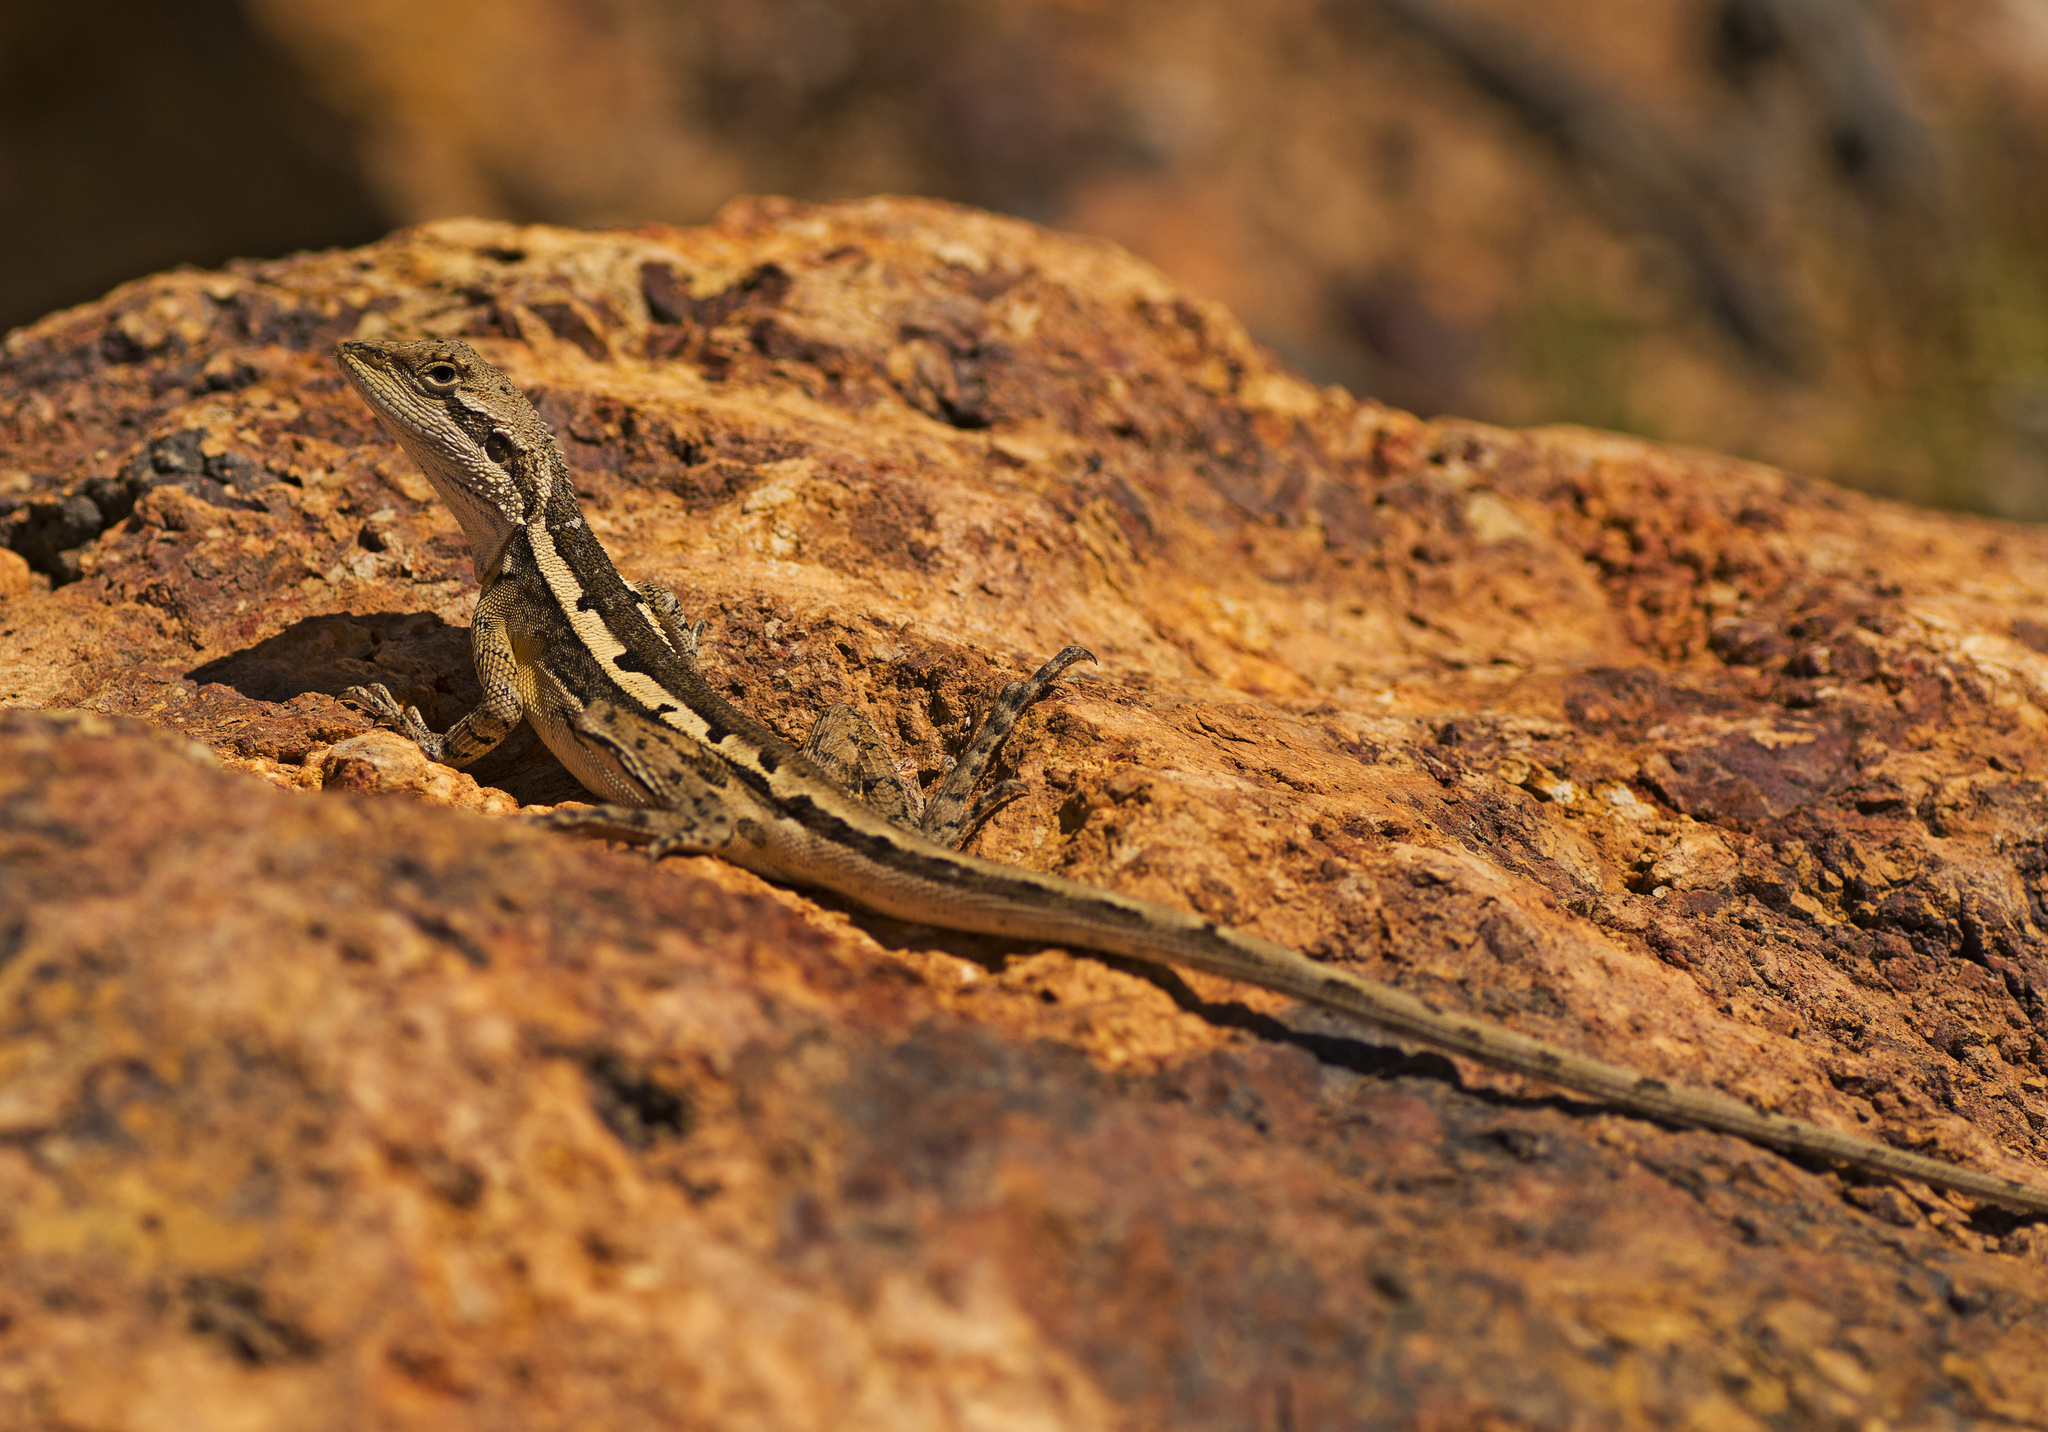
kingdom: Animalia
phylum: Chordata
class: Squamata
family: Agamidae
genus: Lophognathus
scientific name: Lophognathus horneri
